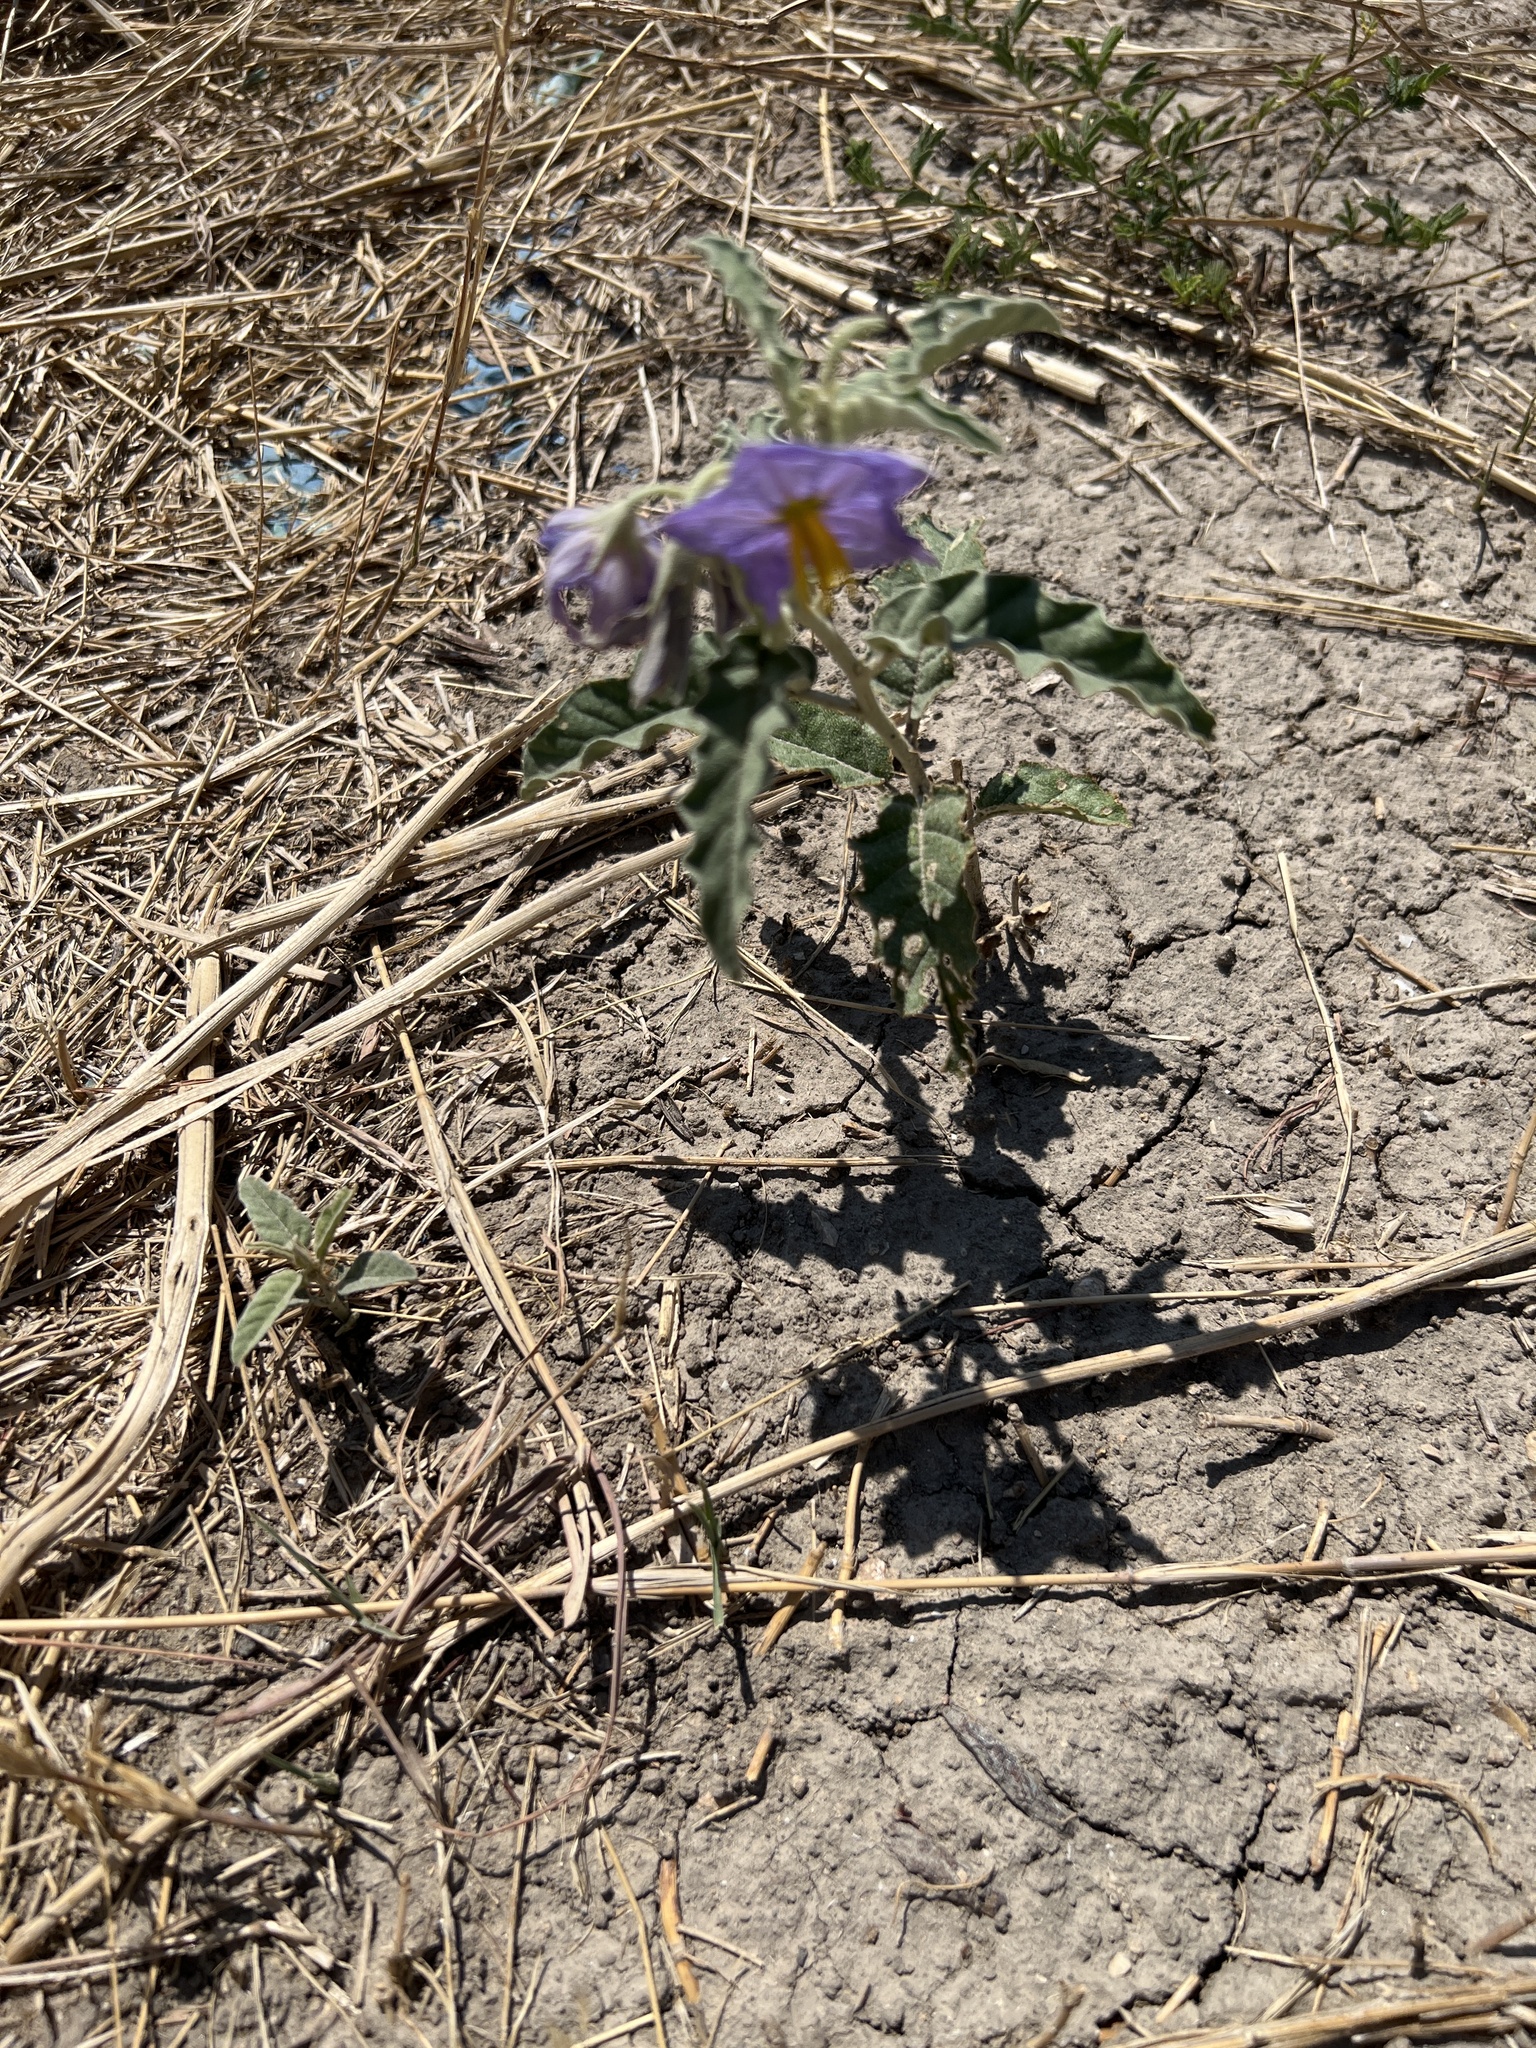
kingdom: Plantae
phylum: Tracheophyta
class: Magnoliopsida
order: Solanales
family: Solanaceae
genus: Solanum
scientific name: Solanum elaeagnifolium
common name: Silverleaf nightshade
